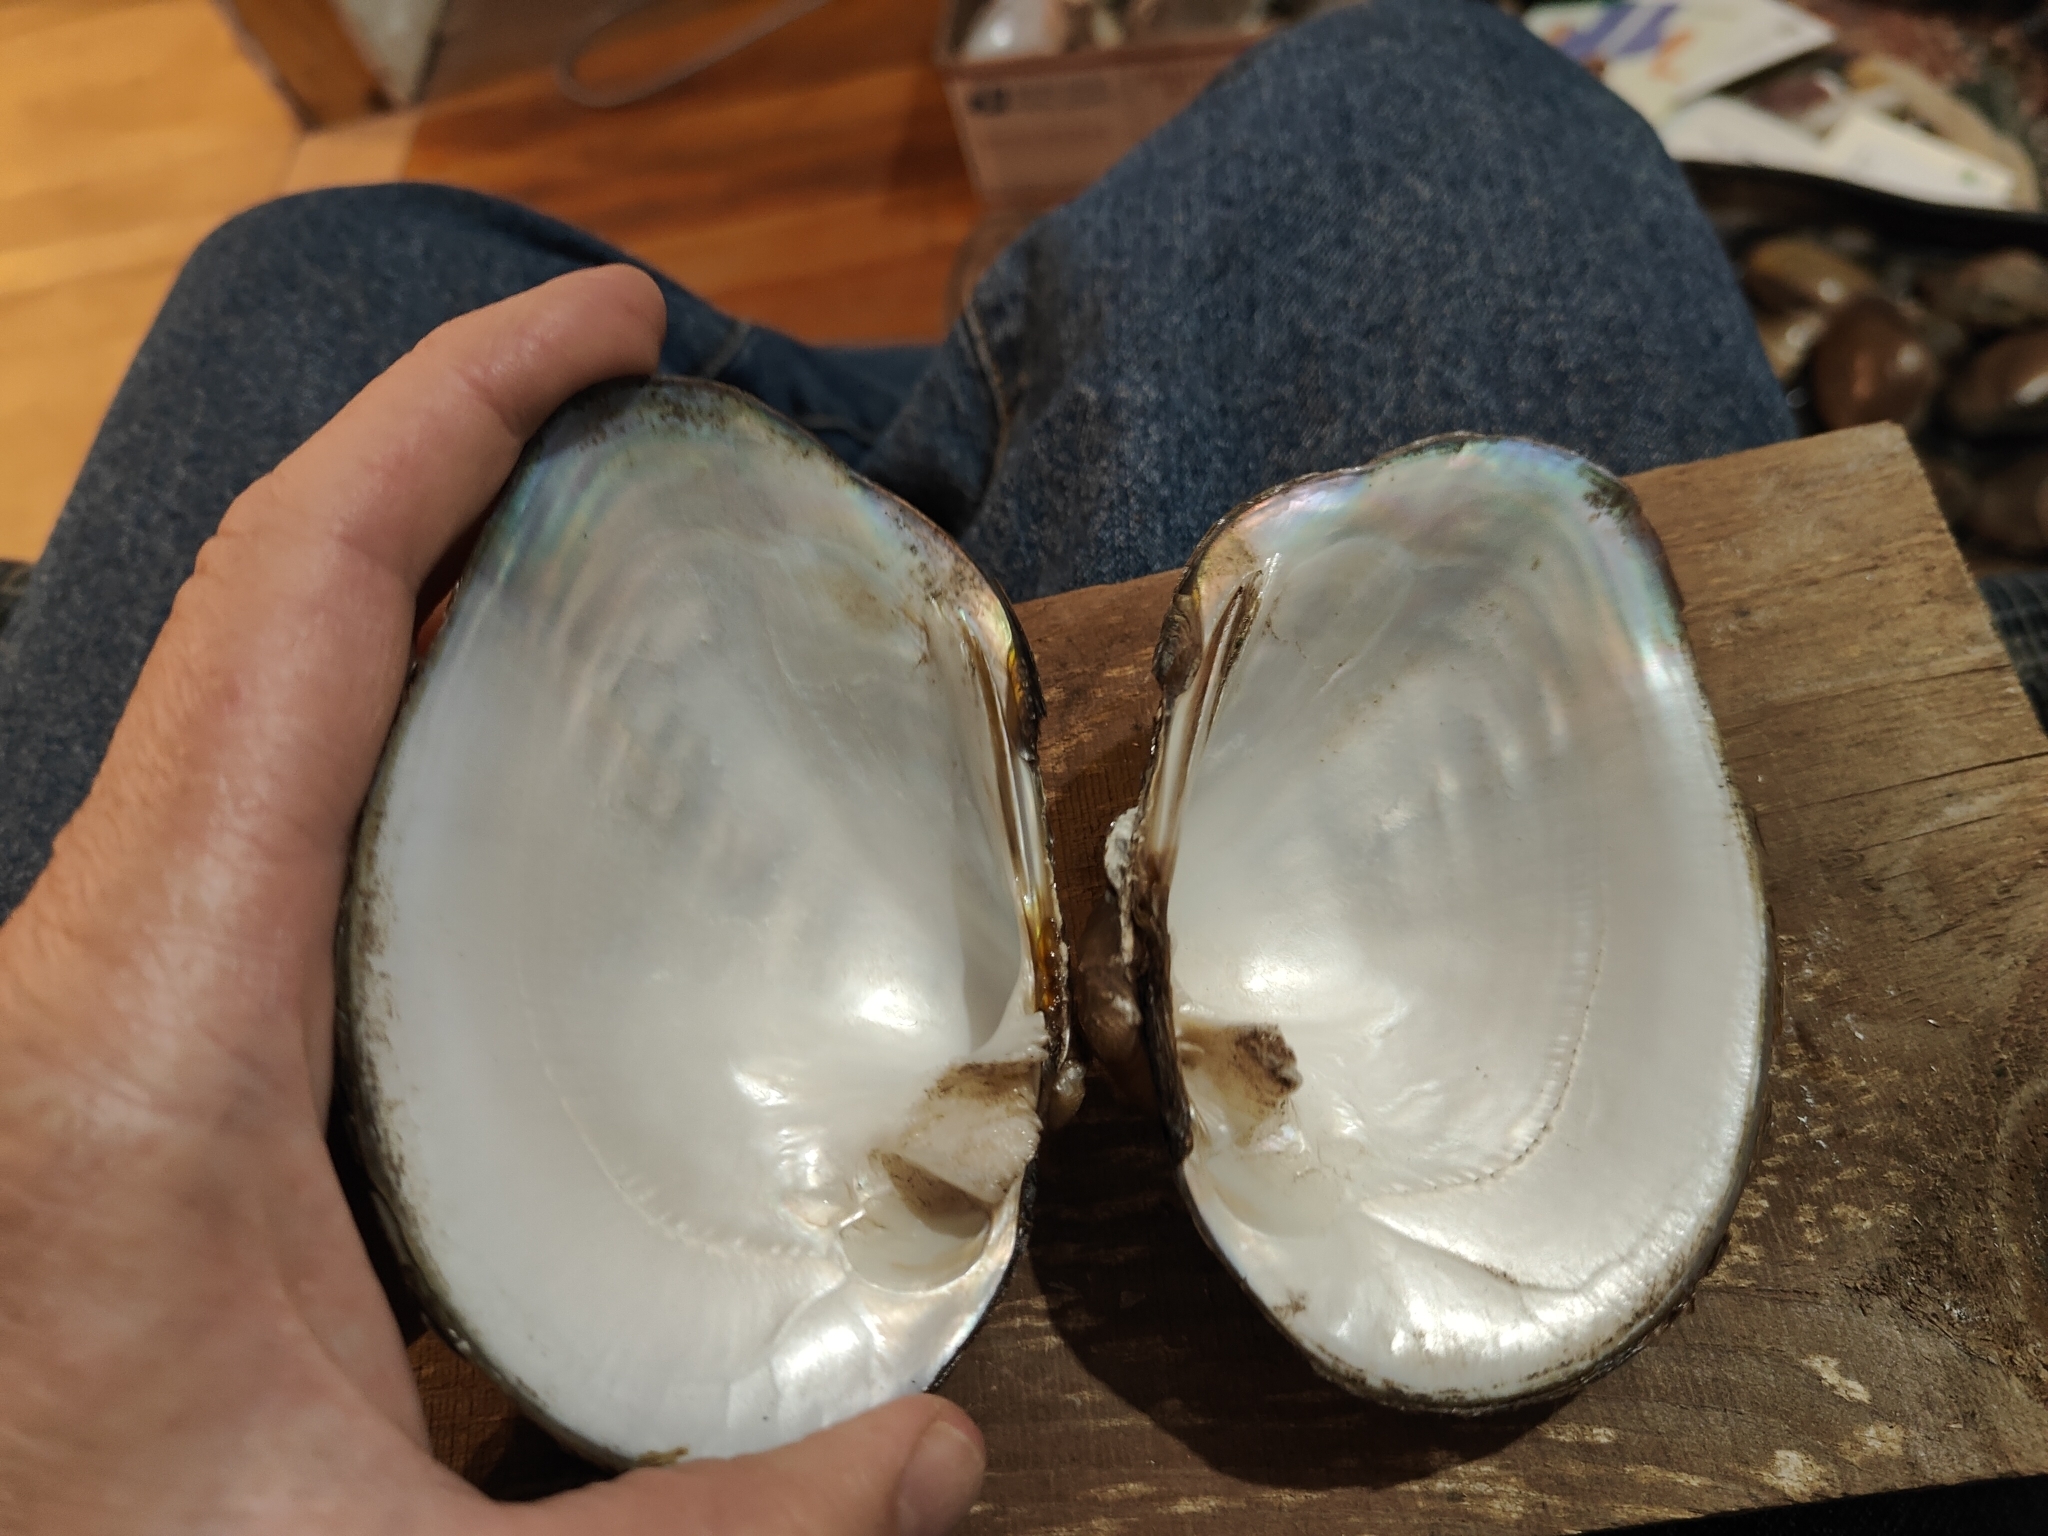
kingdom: Animalia
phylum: Mollusca
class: Bivalvia
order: Unionida
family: Unionidae
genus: Quadrula
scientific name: Quadrula quadrula
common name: Mapleleaf
